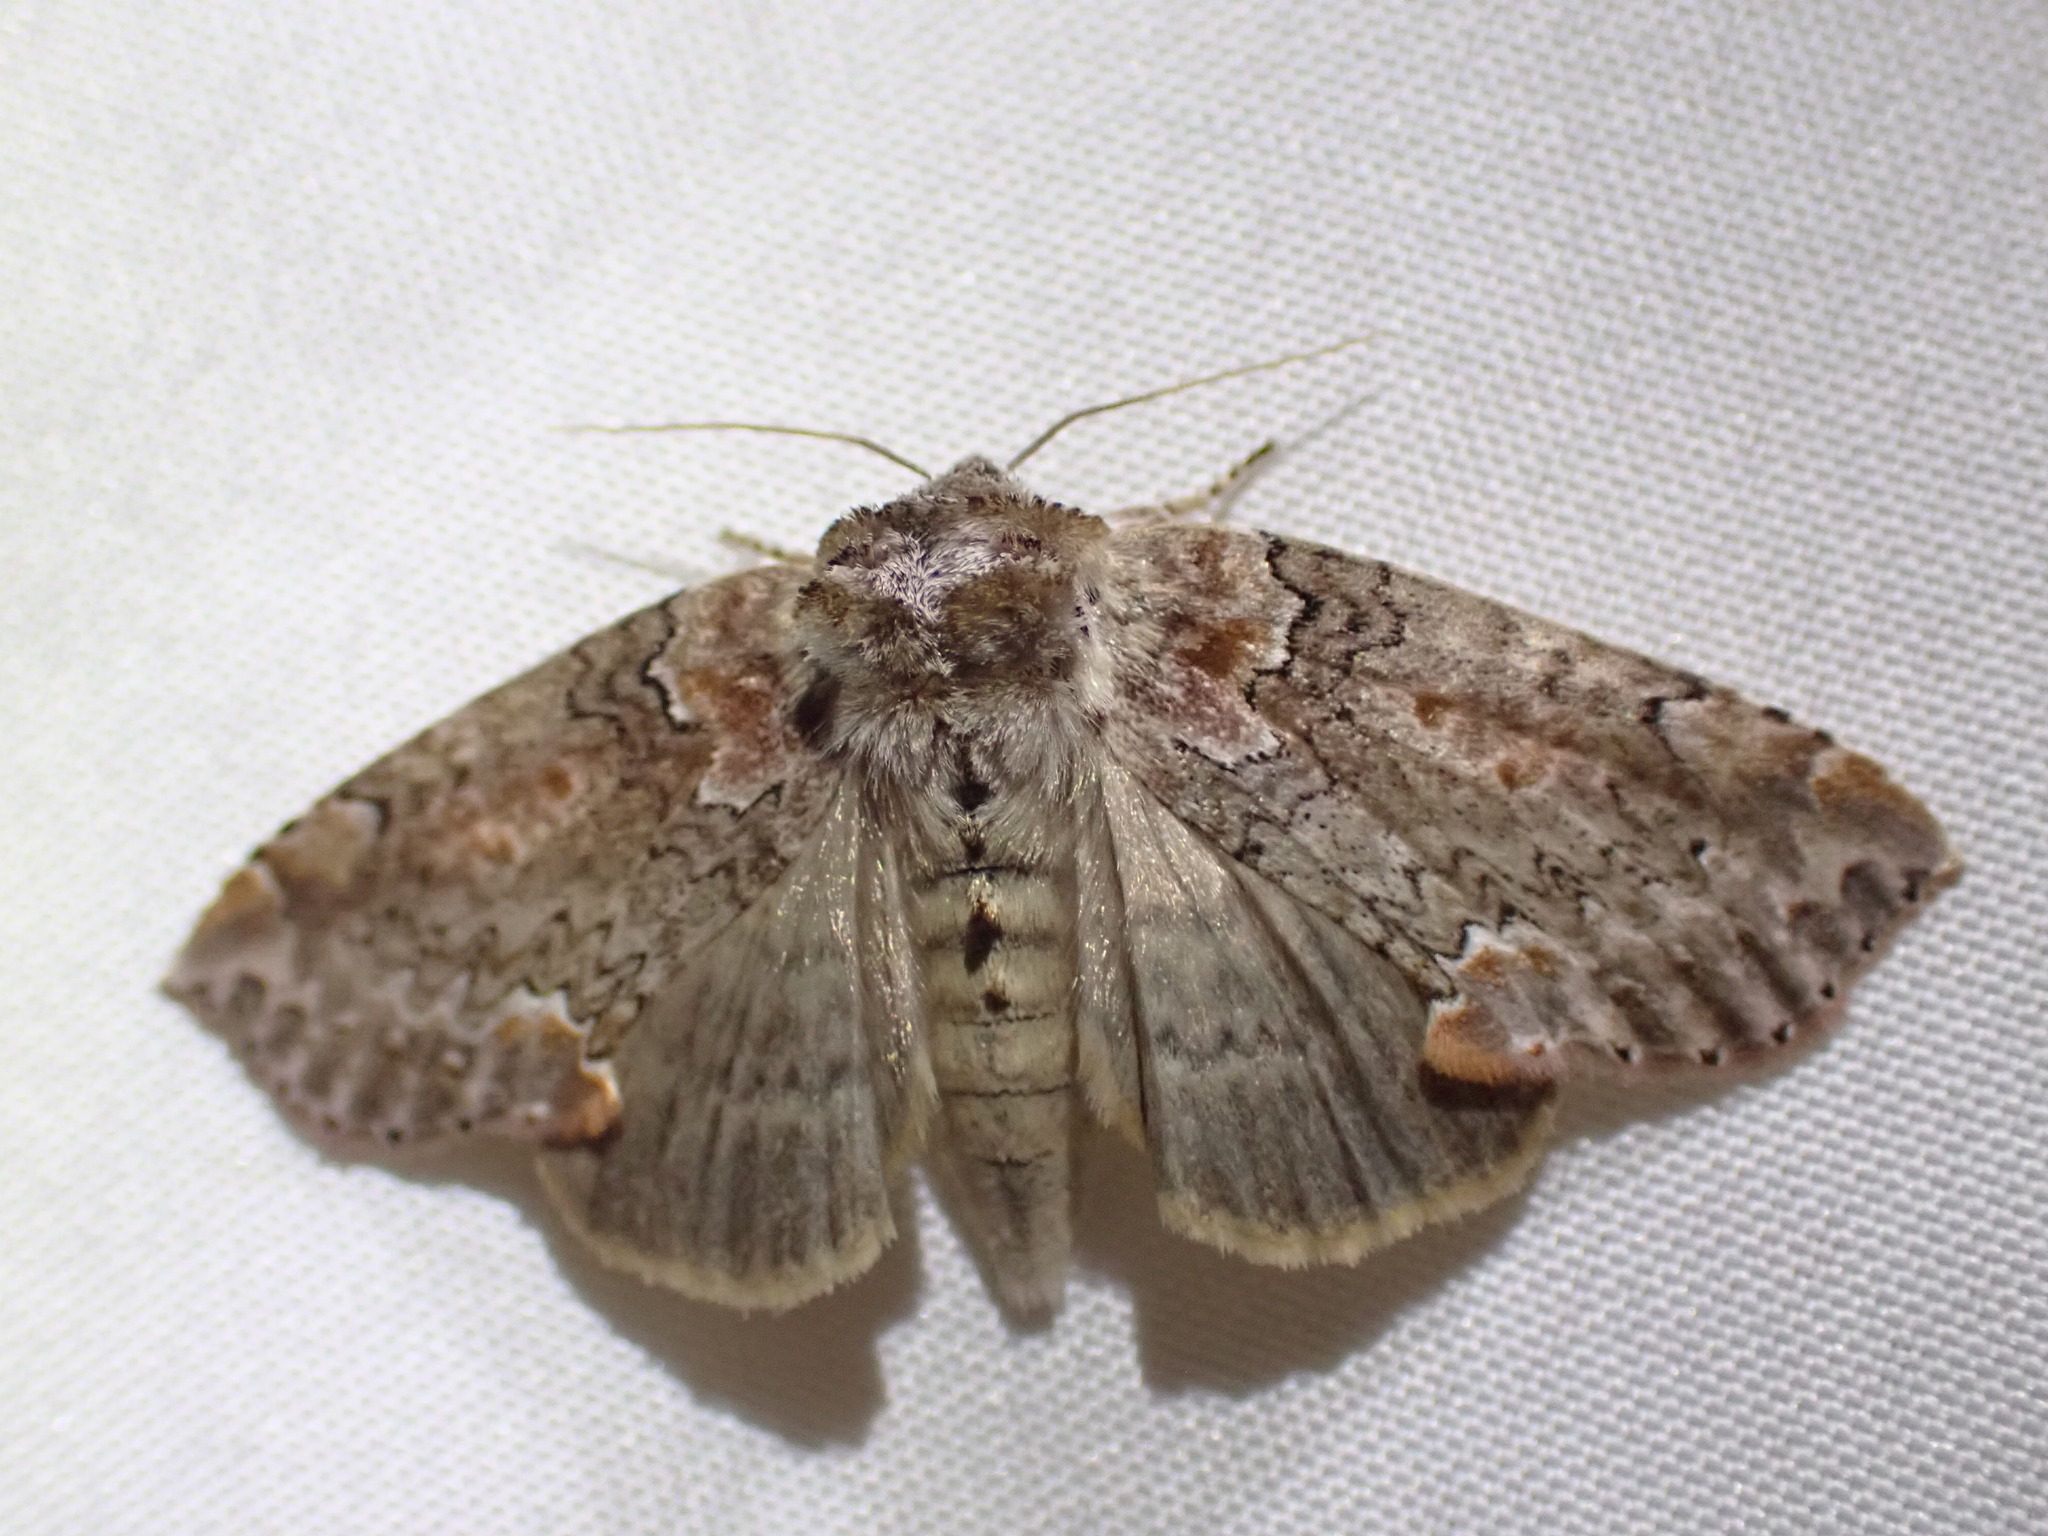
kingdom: Animalia
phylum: Arthropoda
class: Insecta
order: Lepidoptera
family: Drepanidae
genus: Pseudothyatira
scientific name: Pseudothyatira cymatophoroides
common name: Tufted thyatirid moth
